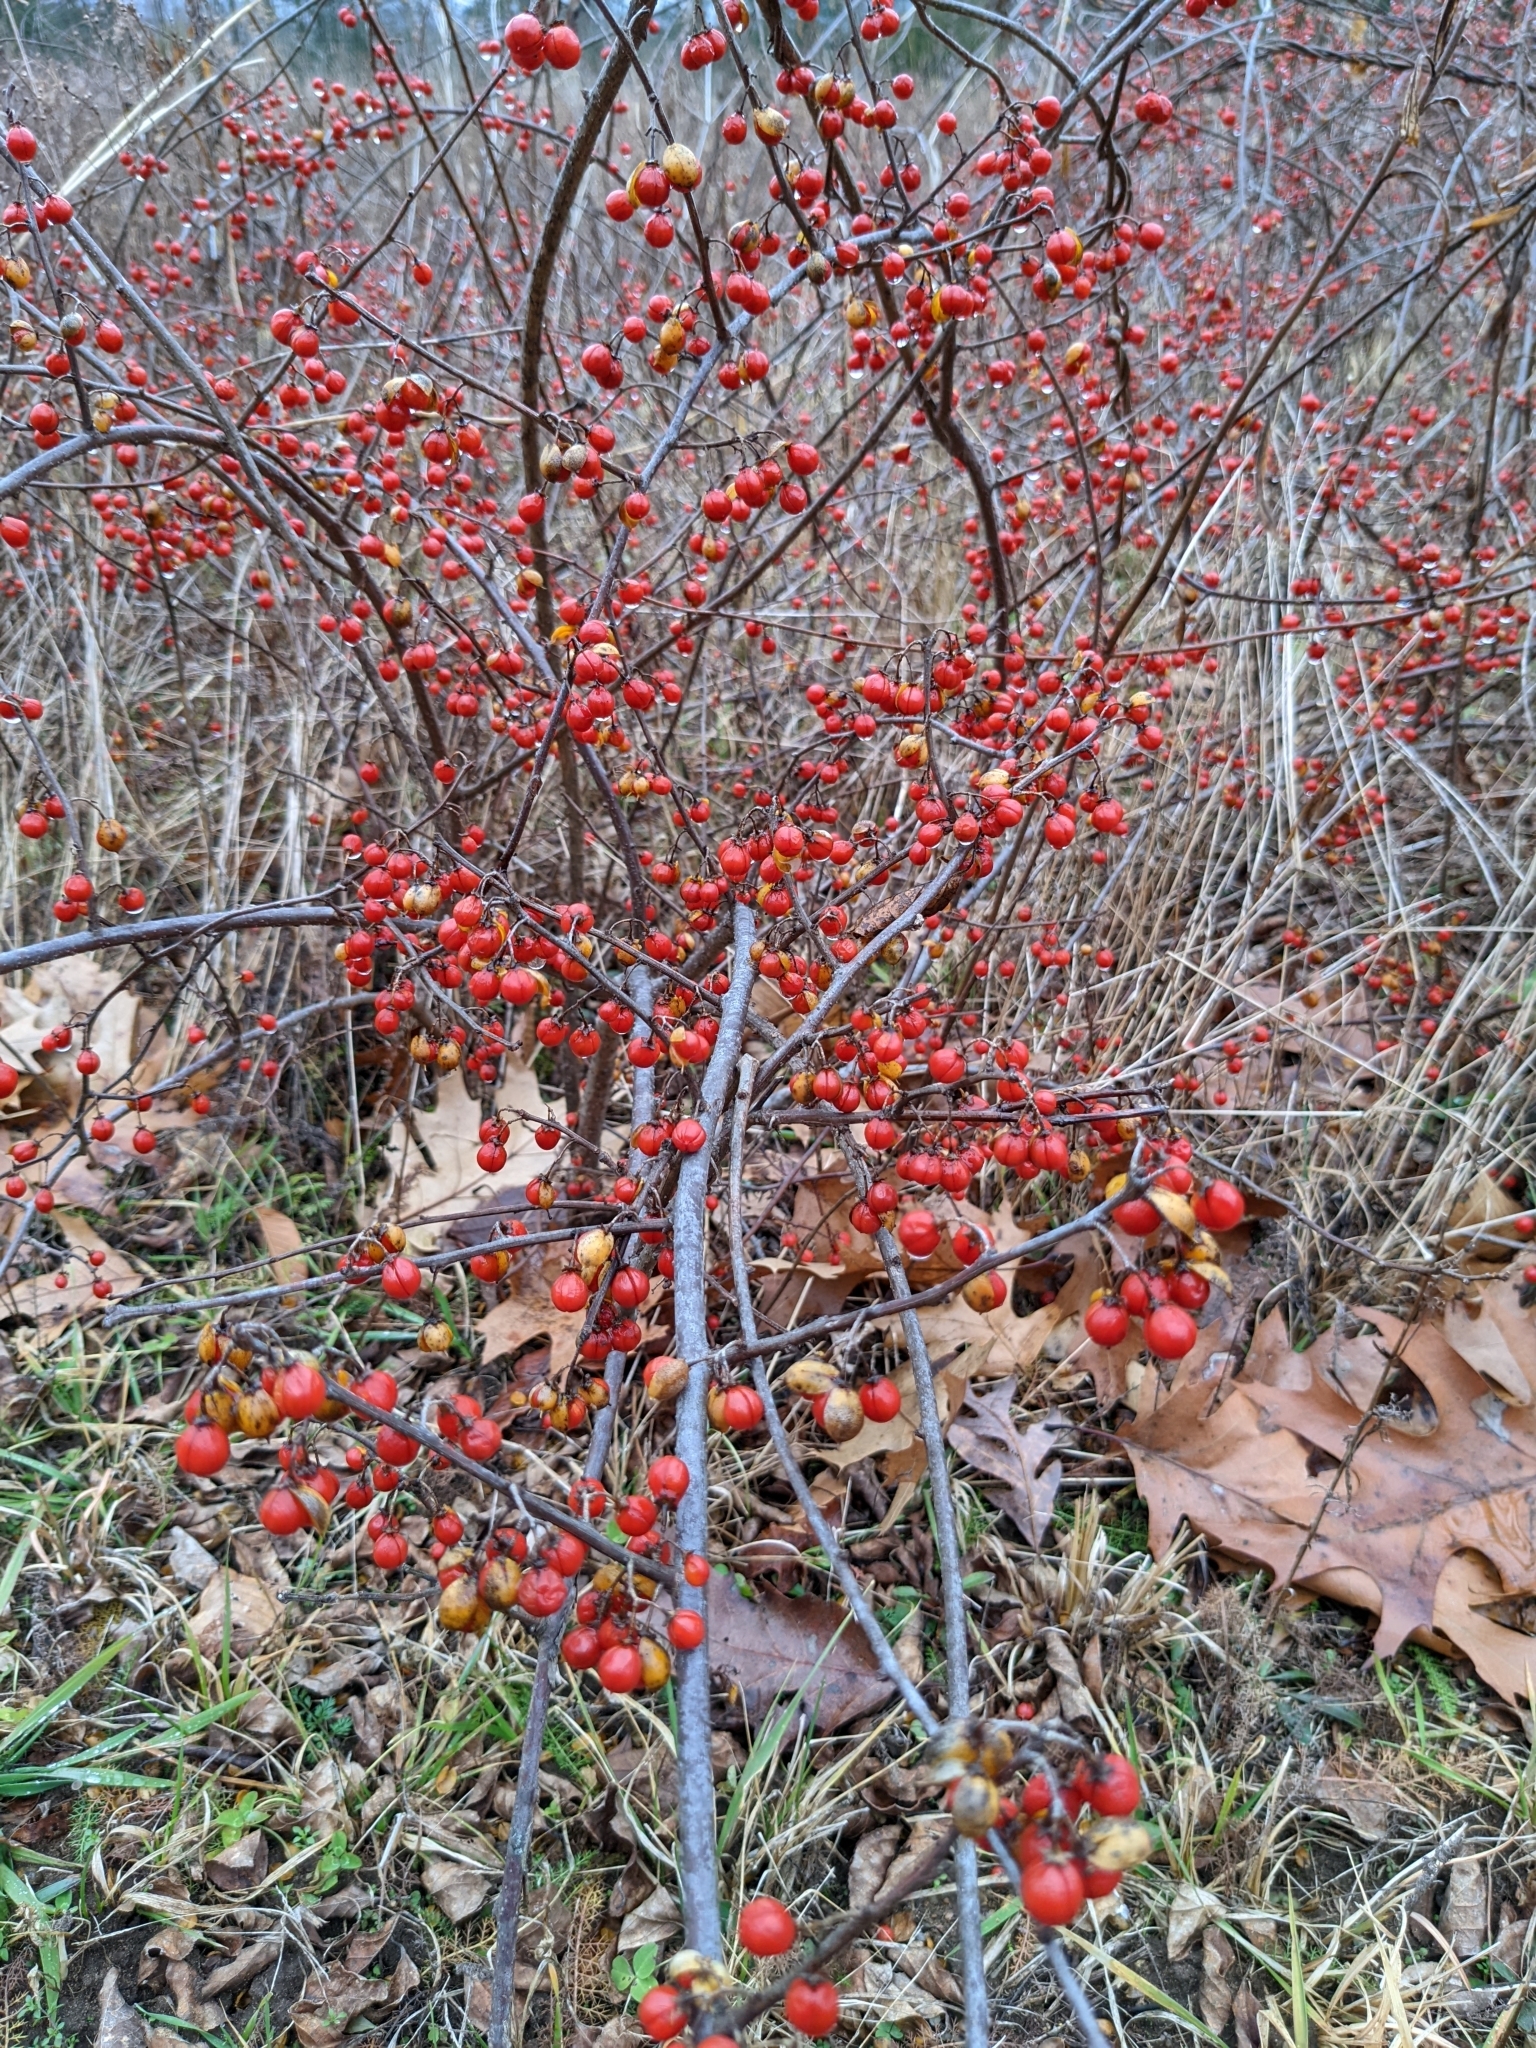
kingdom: Plantae
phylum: Tracheophyta
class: Magnoliopsida
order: Celastrales
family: Celastraceae
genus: Celastrus
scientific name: Celastrus orbiculatus
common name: Oriental bittersweet
